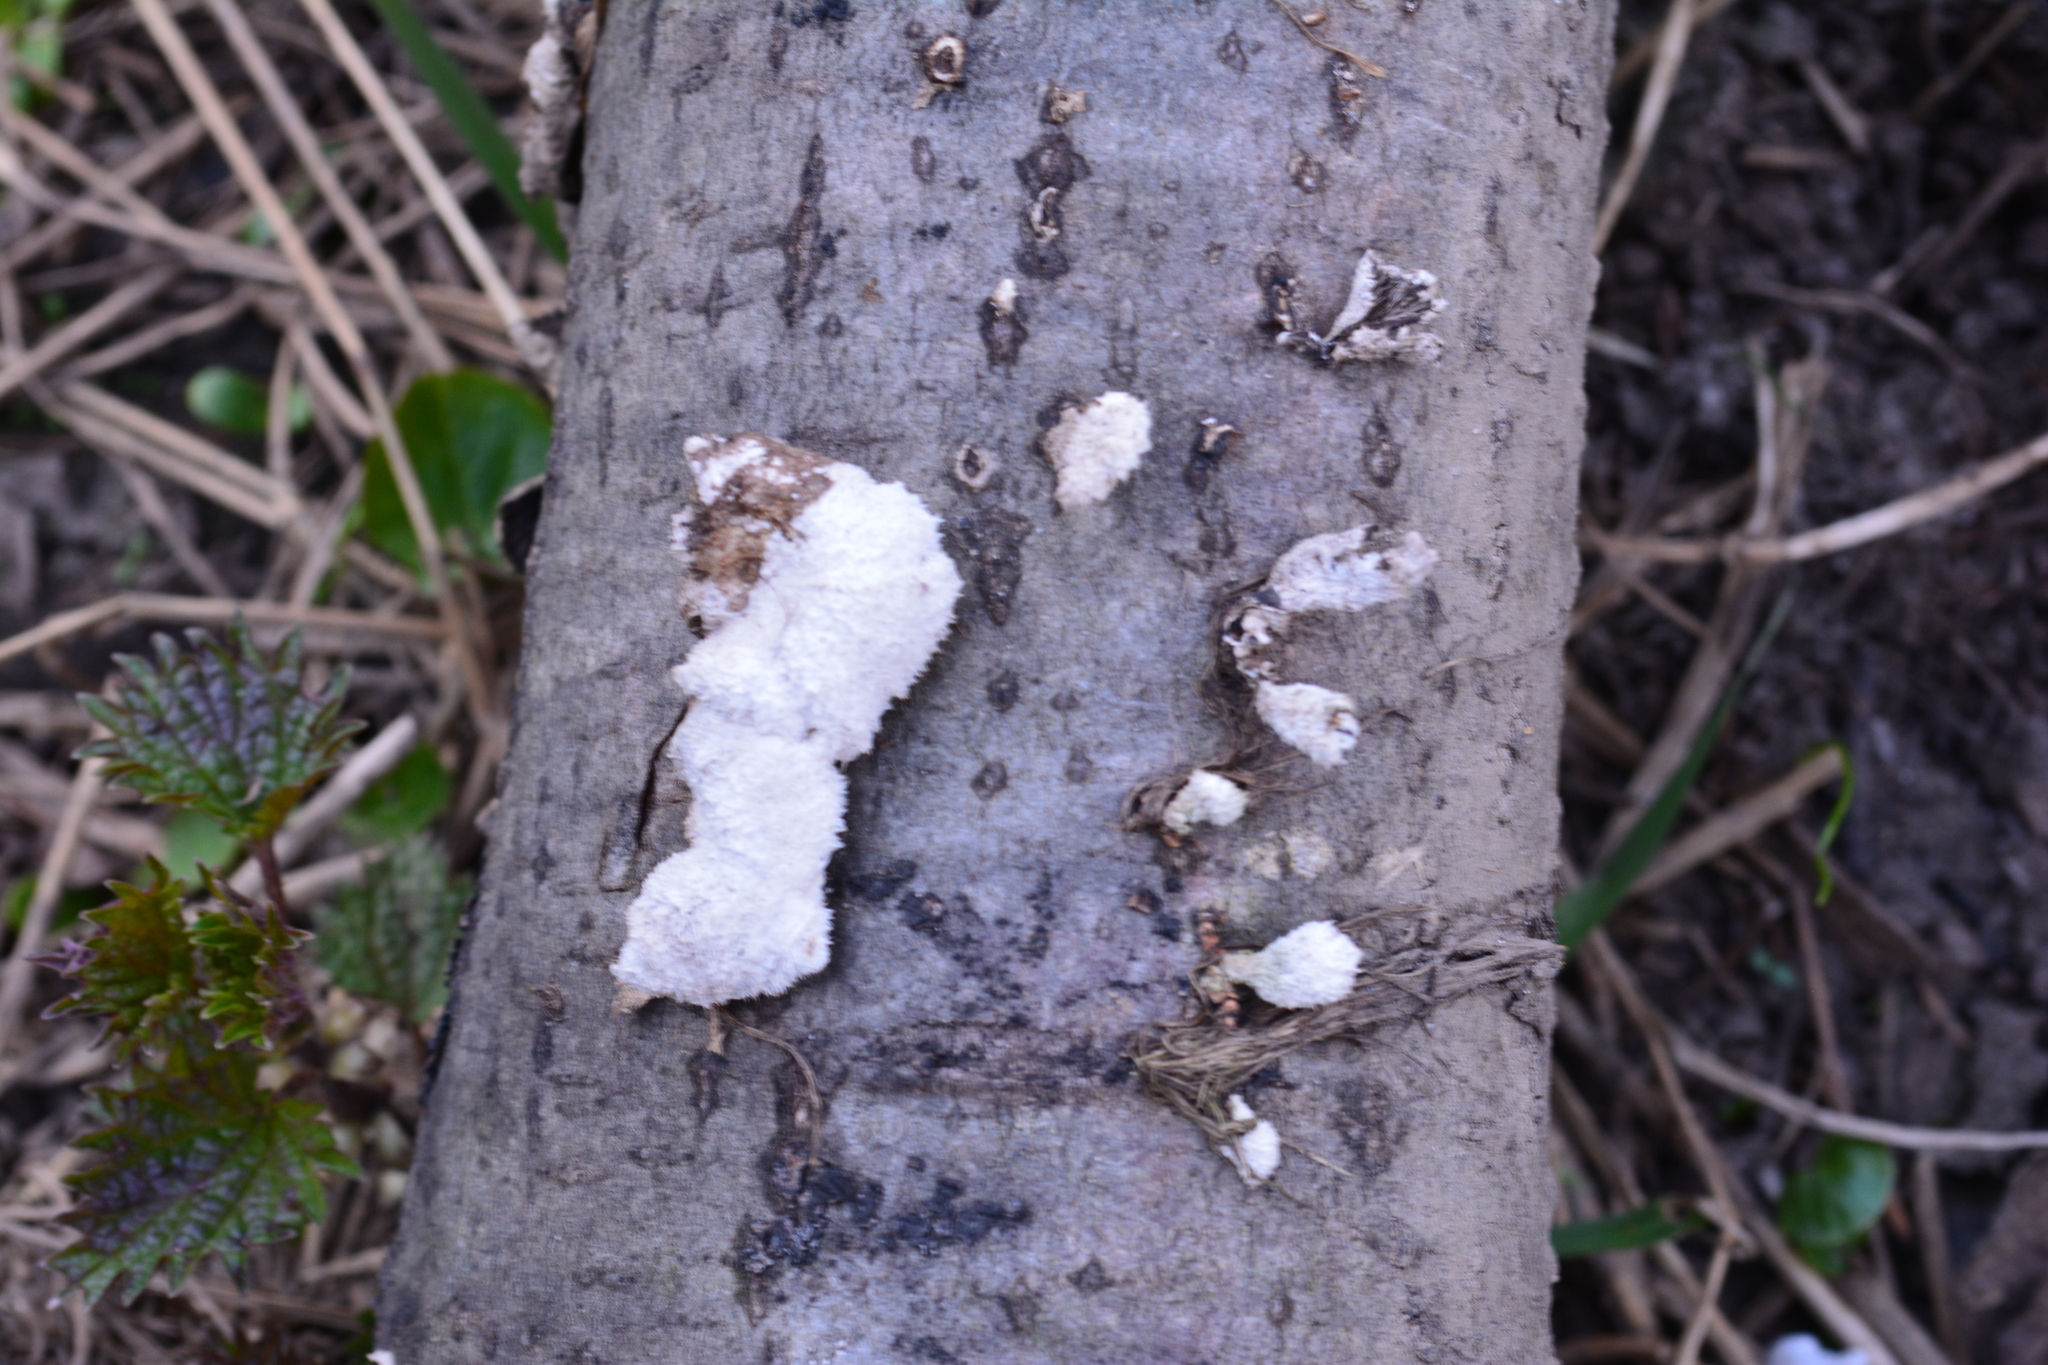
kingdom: Fungi
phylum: Basidiomycota
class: Agaricomycetes
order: Agaricales
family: Schizophyllaceae
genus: Schizophyllum
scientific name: Schizophyllum commune
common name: Common porecrust
